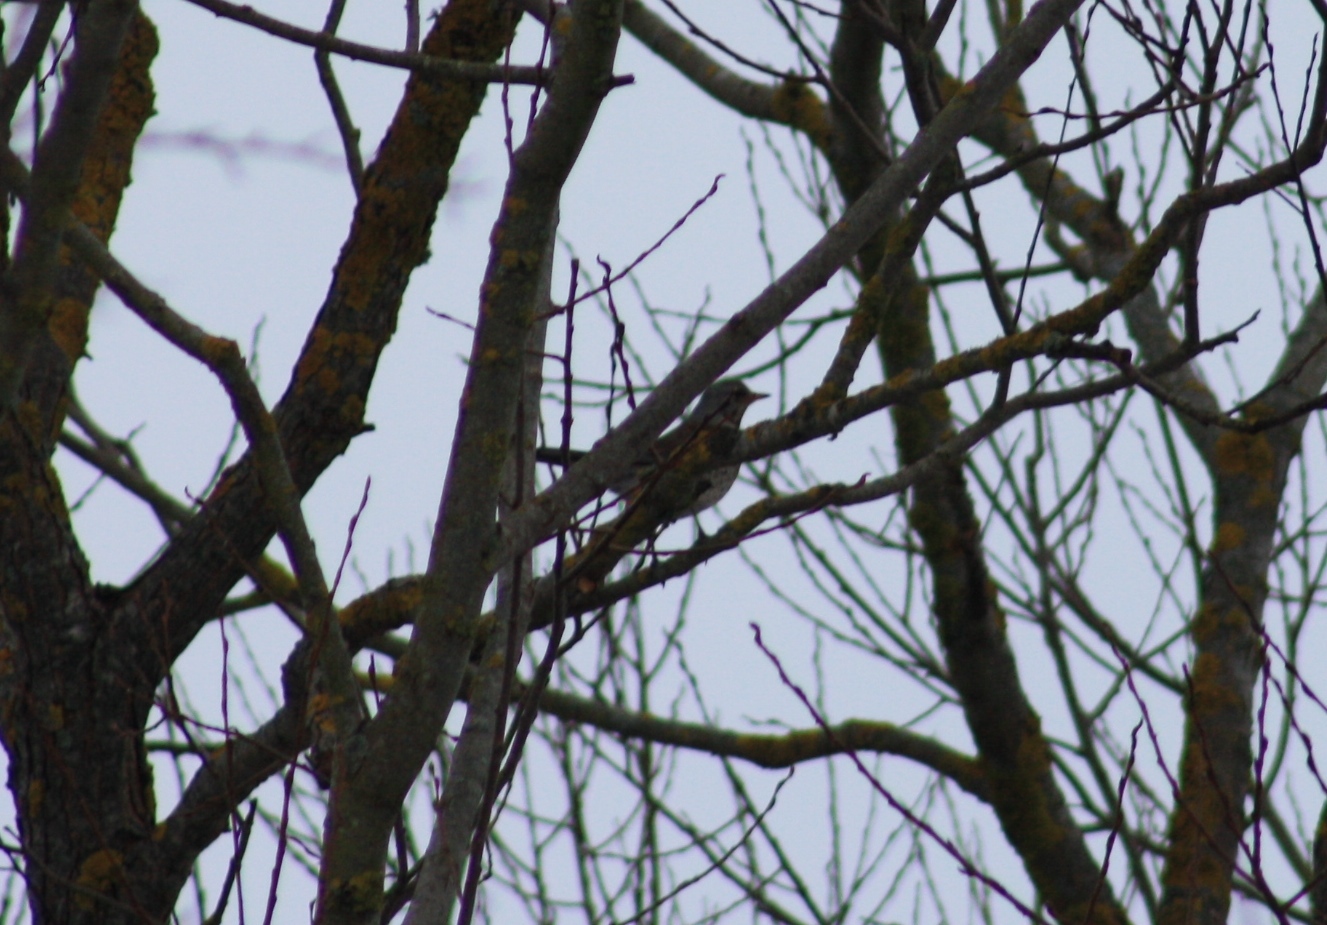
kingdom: Animalia
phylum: Chordata
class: Aves
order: Passeriformes
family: Turdidae
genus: Turdus
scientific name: Turdus viscivorus
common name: Mistle thrush
